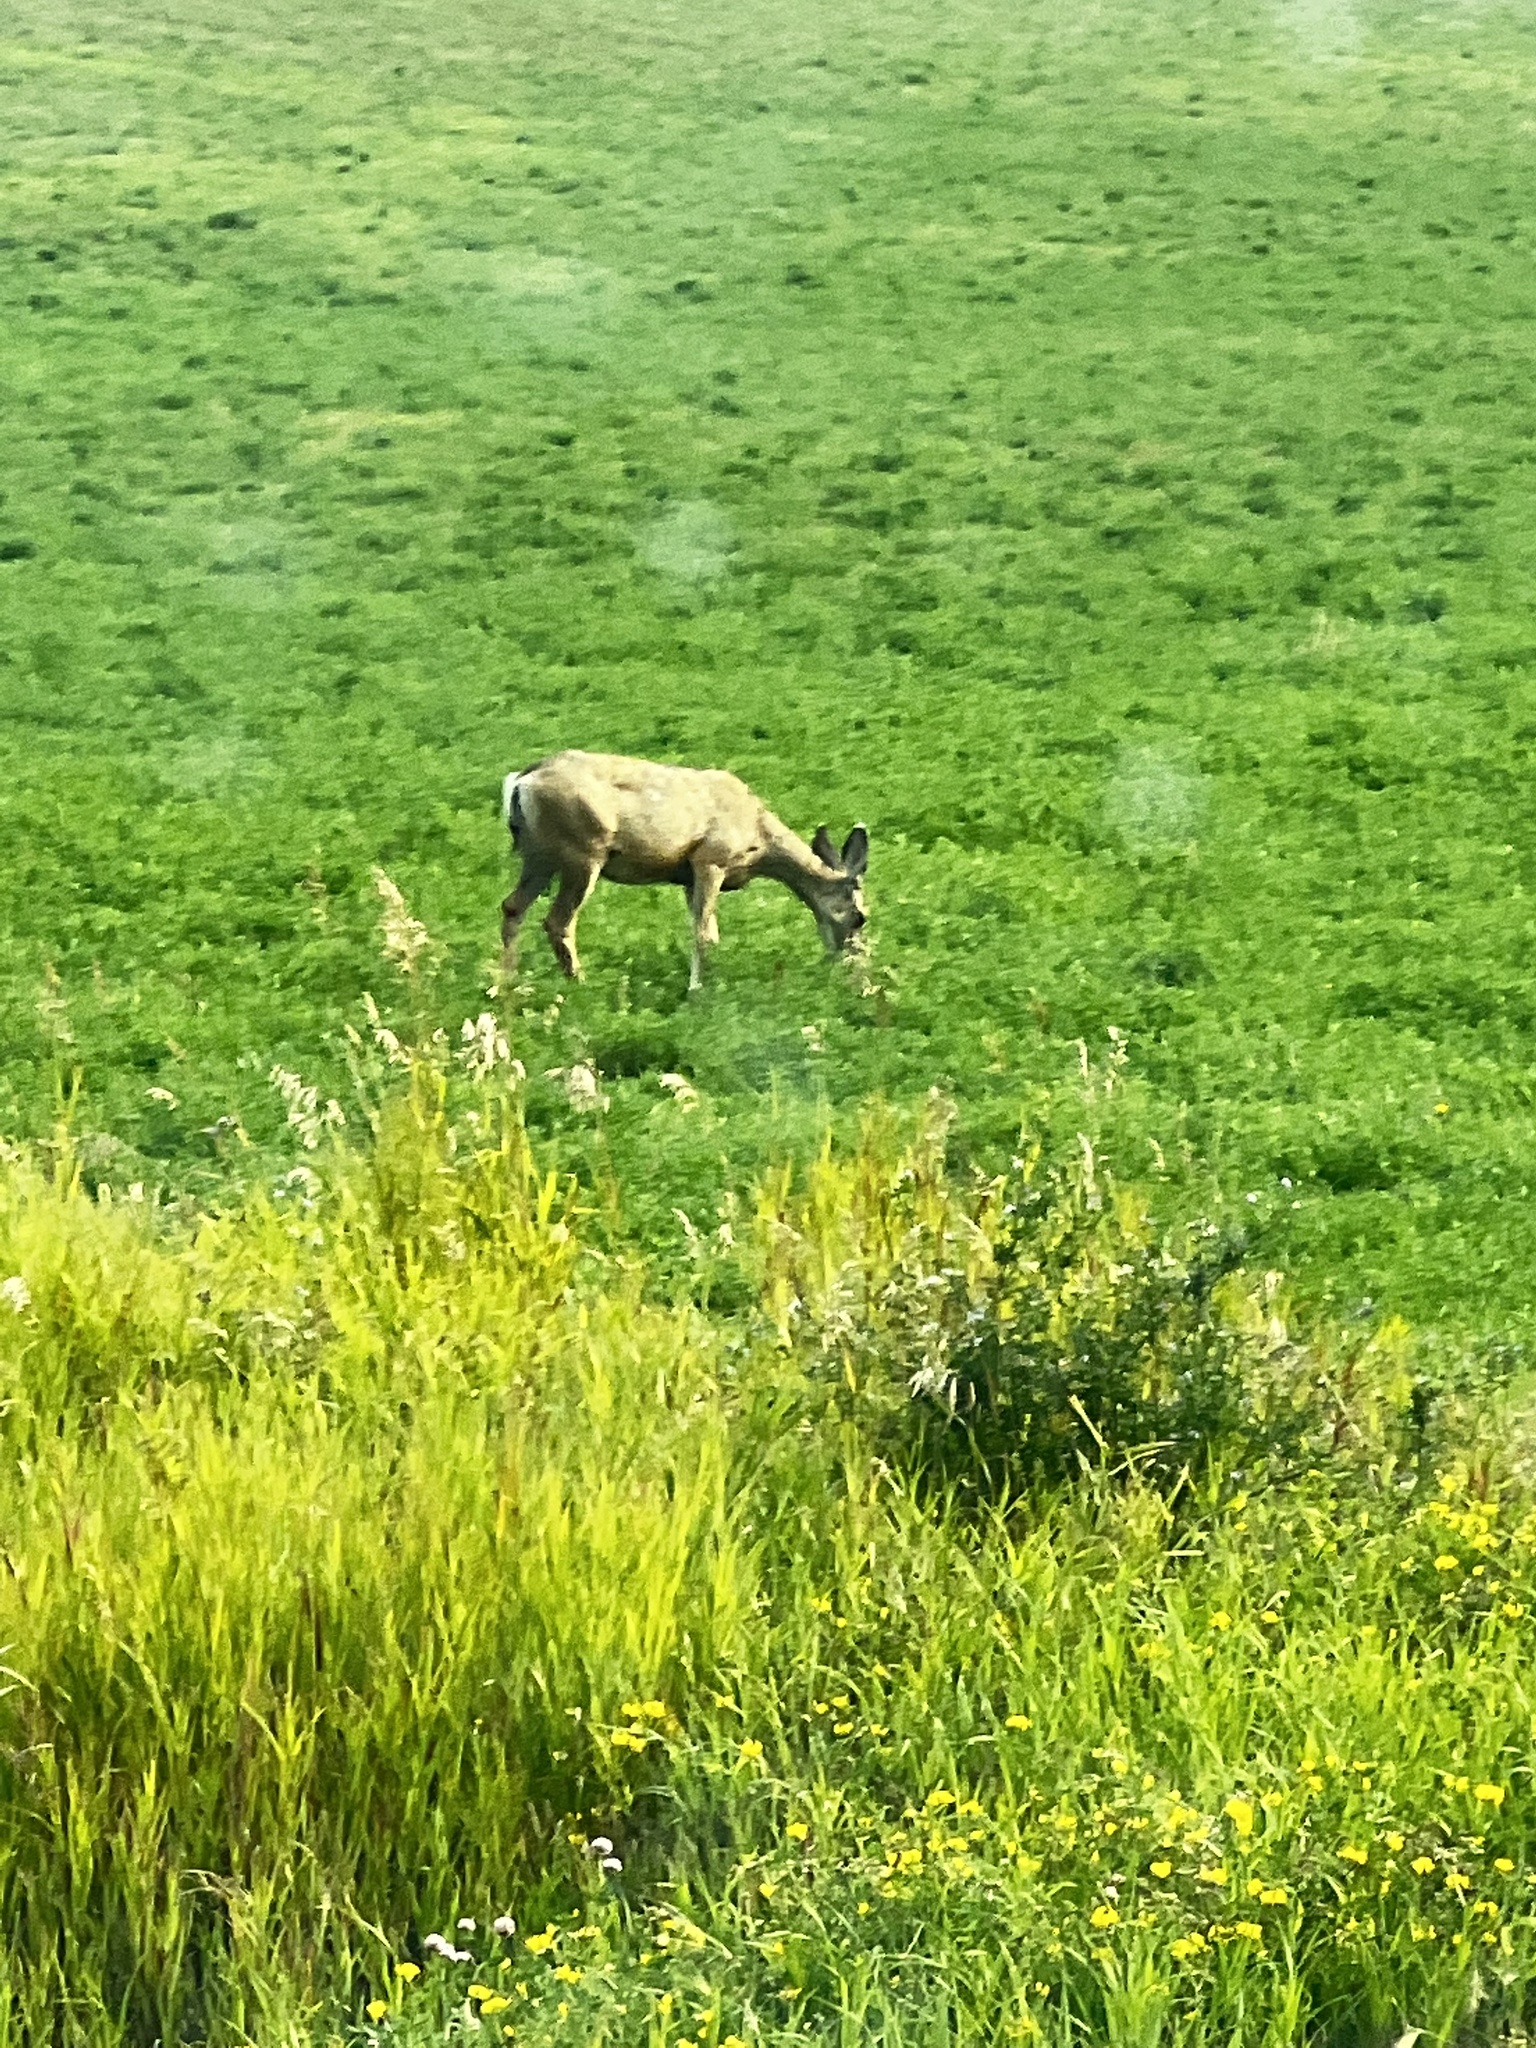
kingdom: Animalia
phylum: Chordata
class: Mammalia
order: Artiodactyla
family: Cervidae
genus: Odocoileus
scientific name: Odocoileus hemionus
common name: Mule deer
